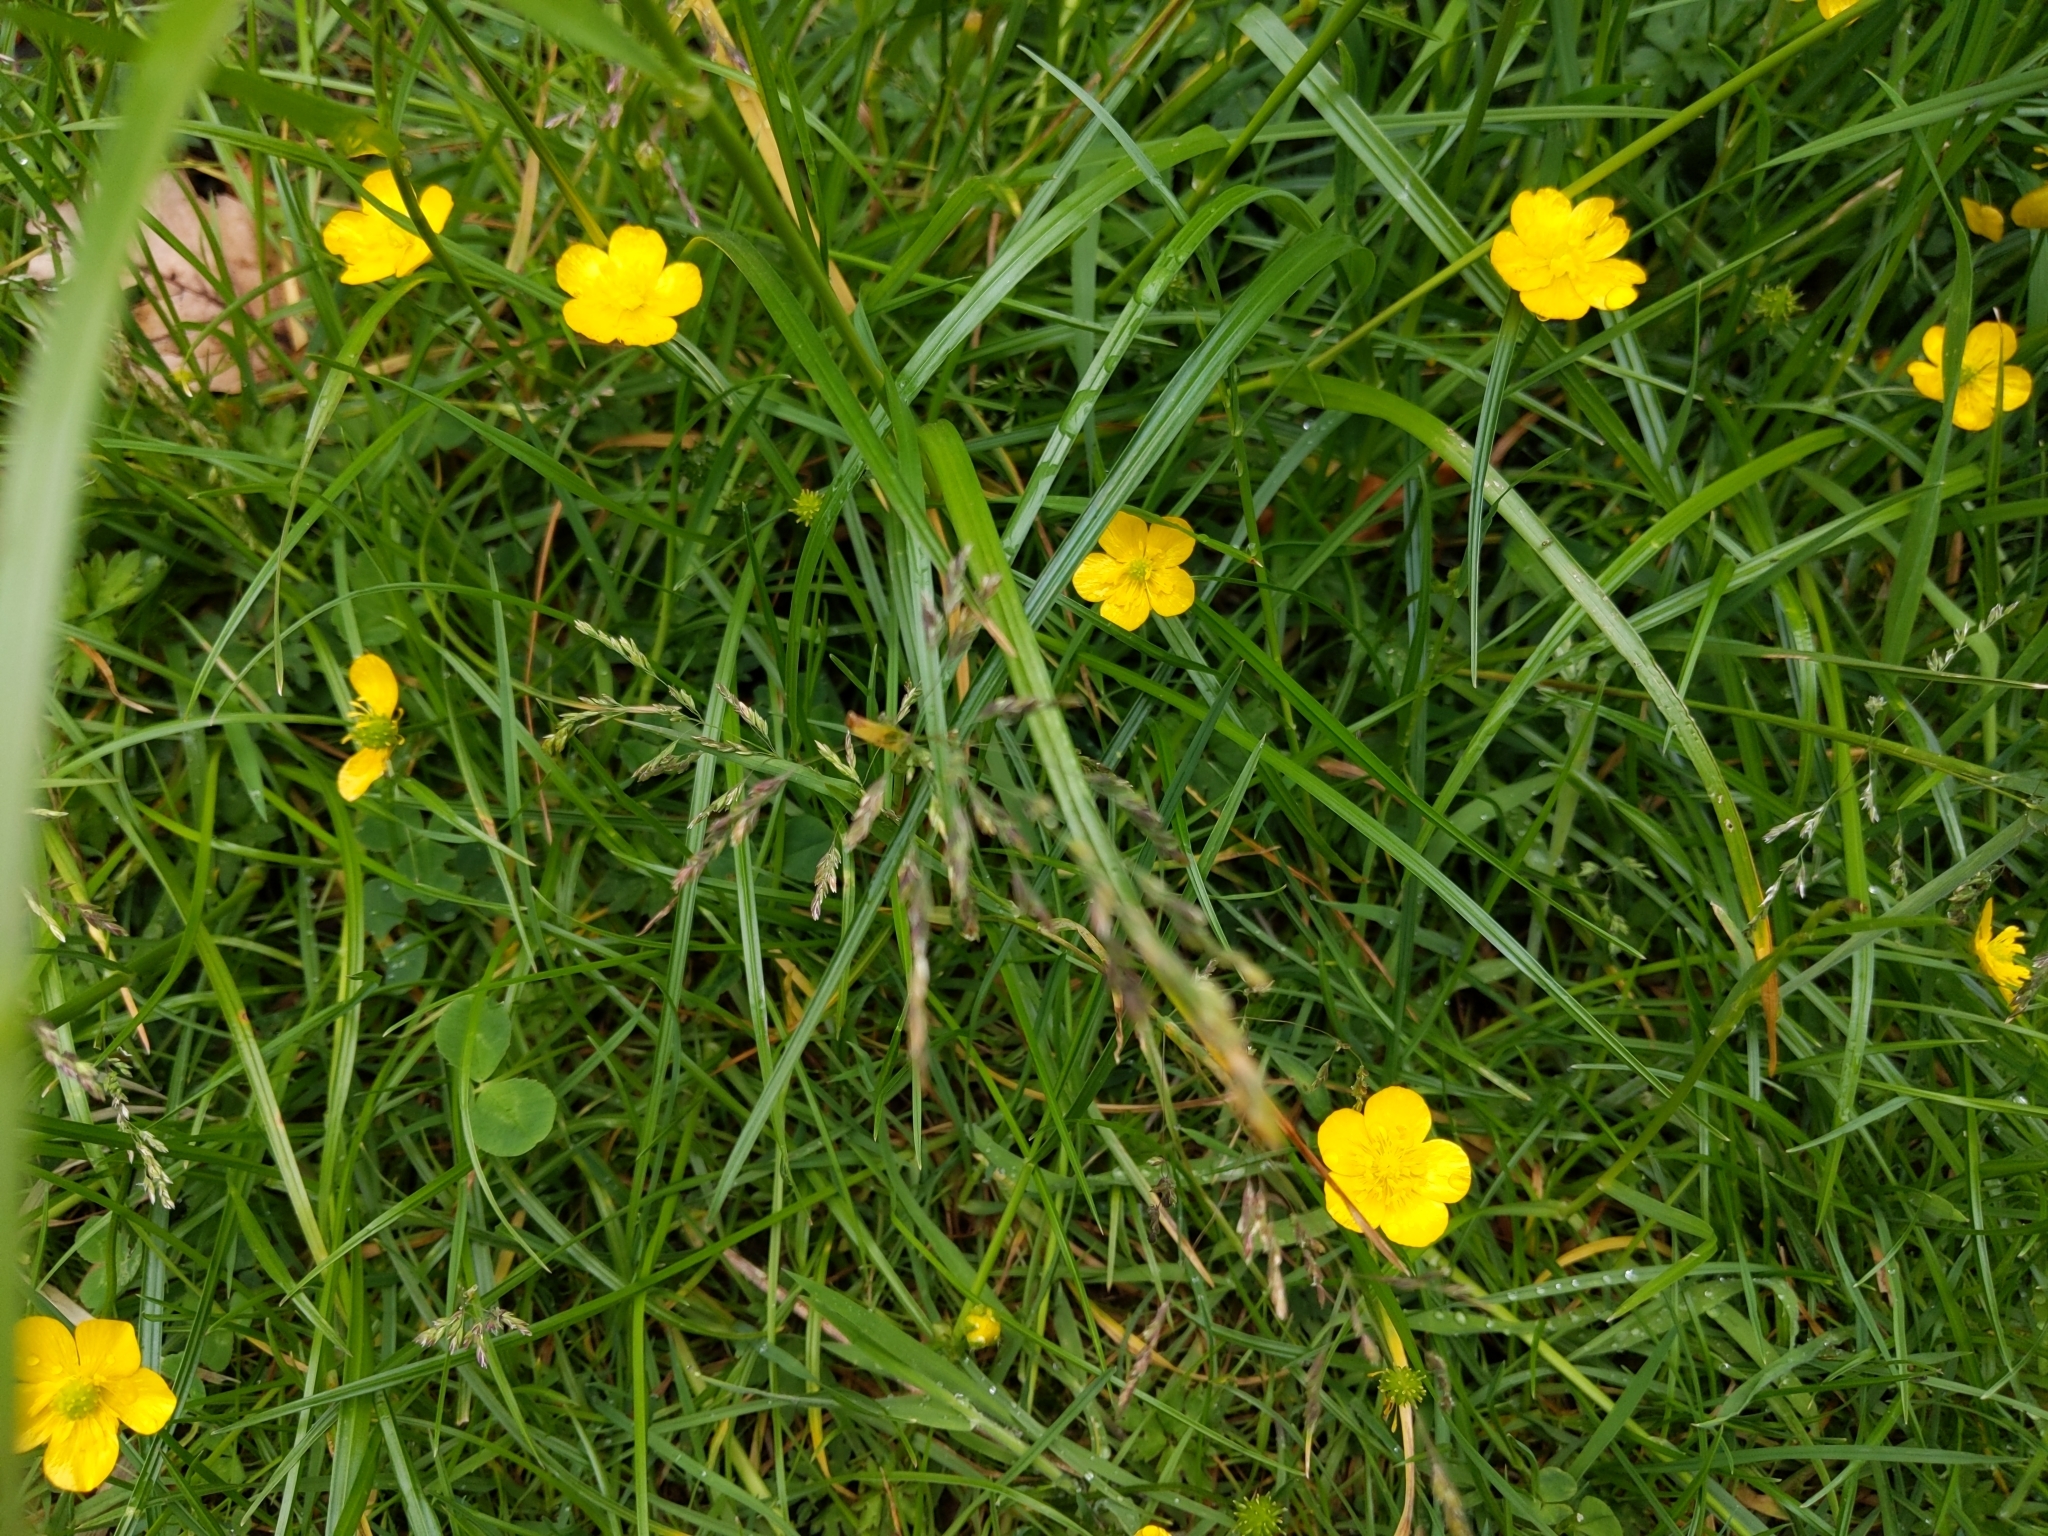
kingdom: Plantae
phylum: Tracheophyta
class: Magnoliopsida
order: Ranunculales
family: Ranunculaceae
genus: Ranunculus
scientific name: Ranunculus repens
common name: Creeping buttercup
